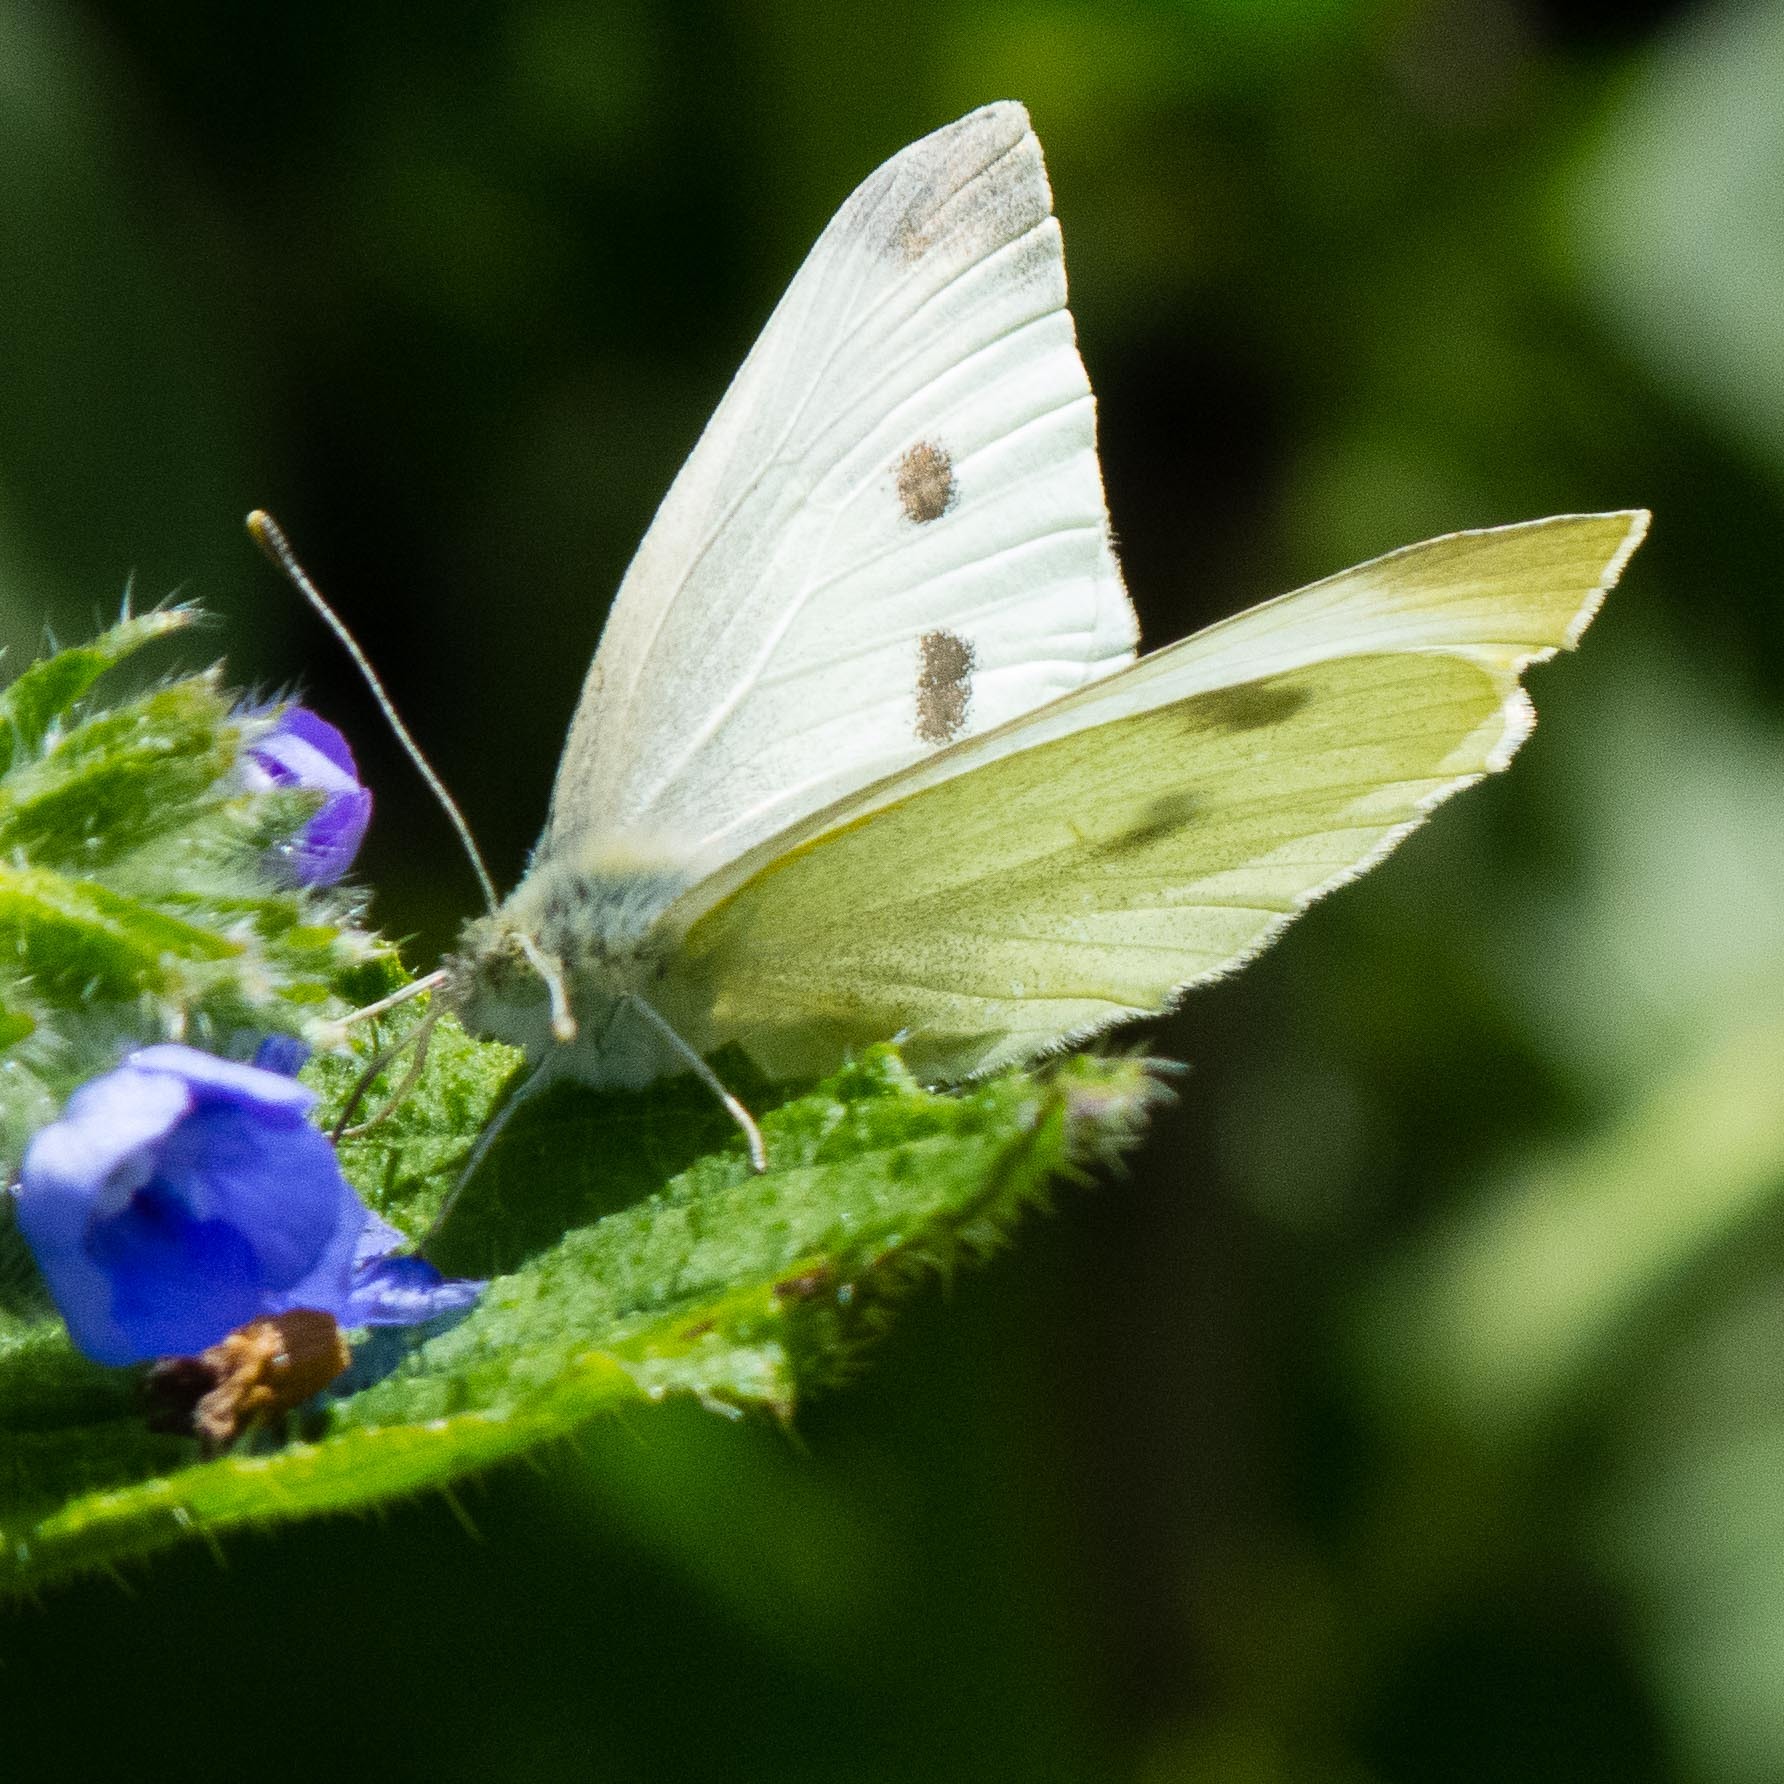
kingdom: Animalia
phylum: Arthropoda
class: Insecta
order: Lepidoptera
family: Pieridae
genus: Pieris
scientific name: Pieris rapae
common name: Small white
